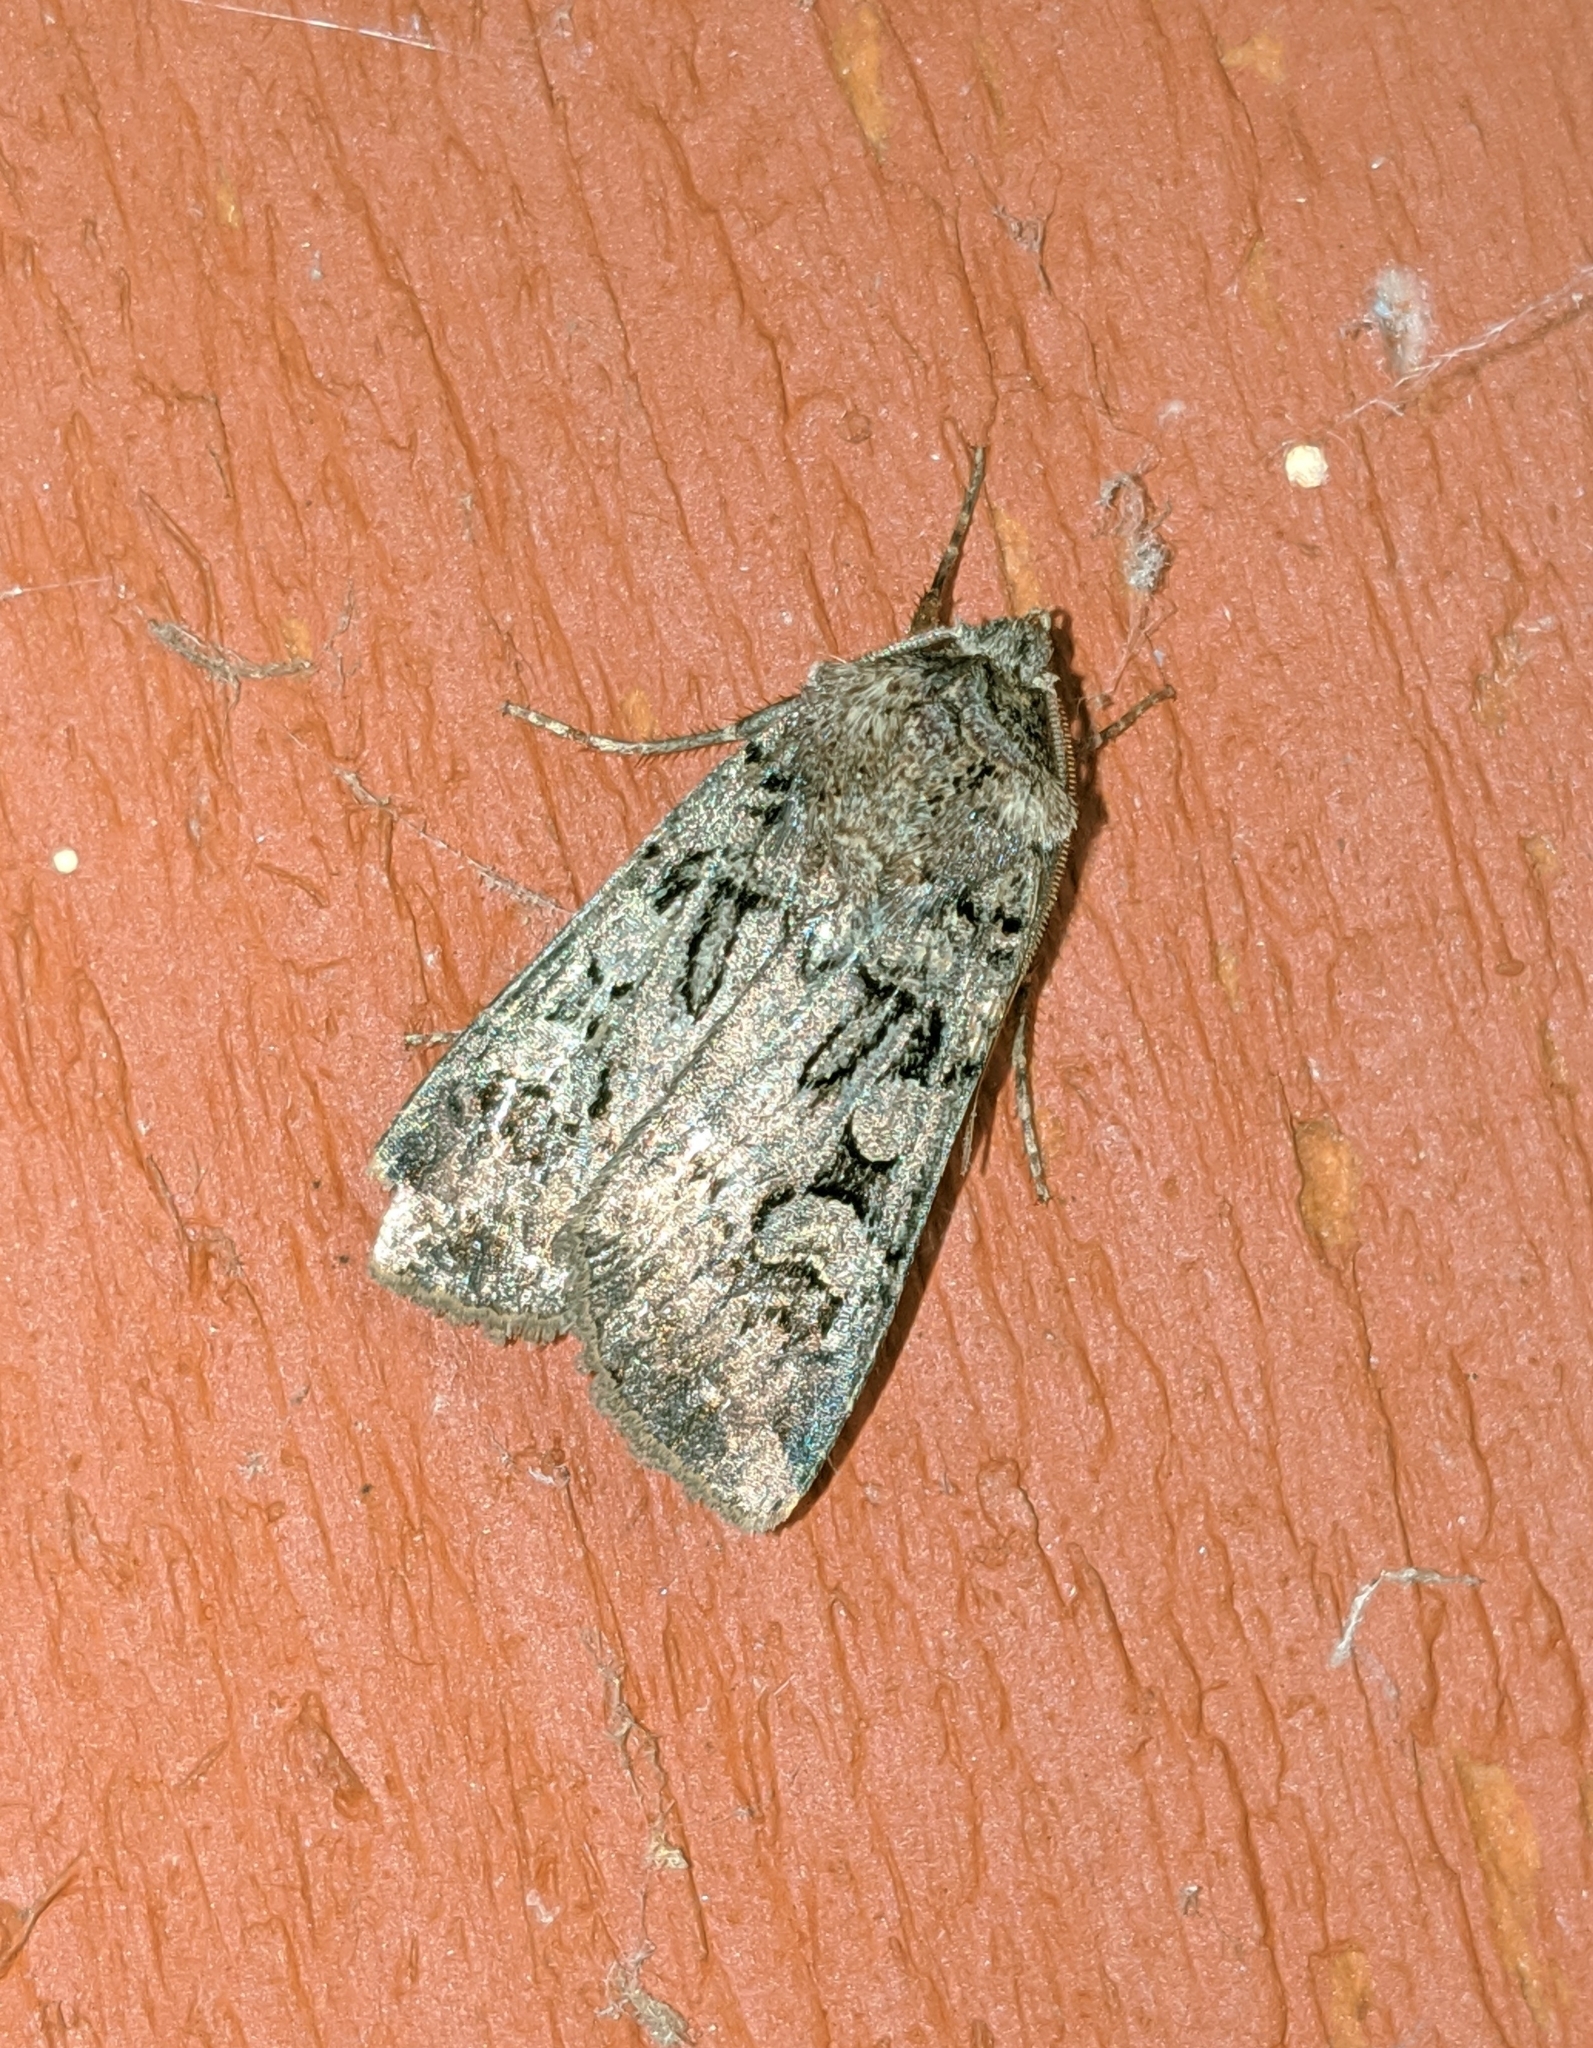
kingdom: Animalia
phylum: Arthropoda
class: Insecta
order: Lepidoptera
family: Noctuidae
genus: Euxoa
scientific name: Euxoa vetusta
